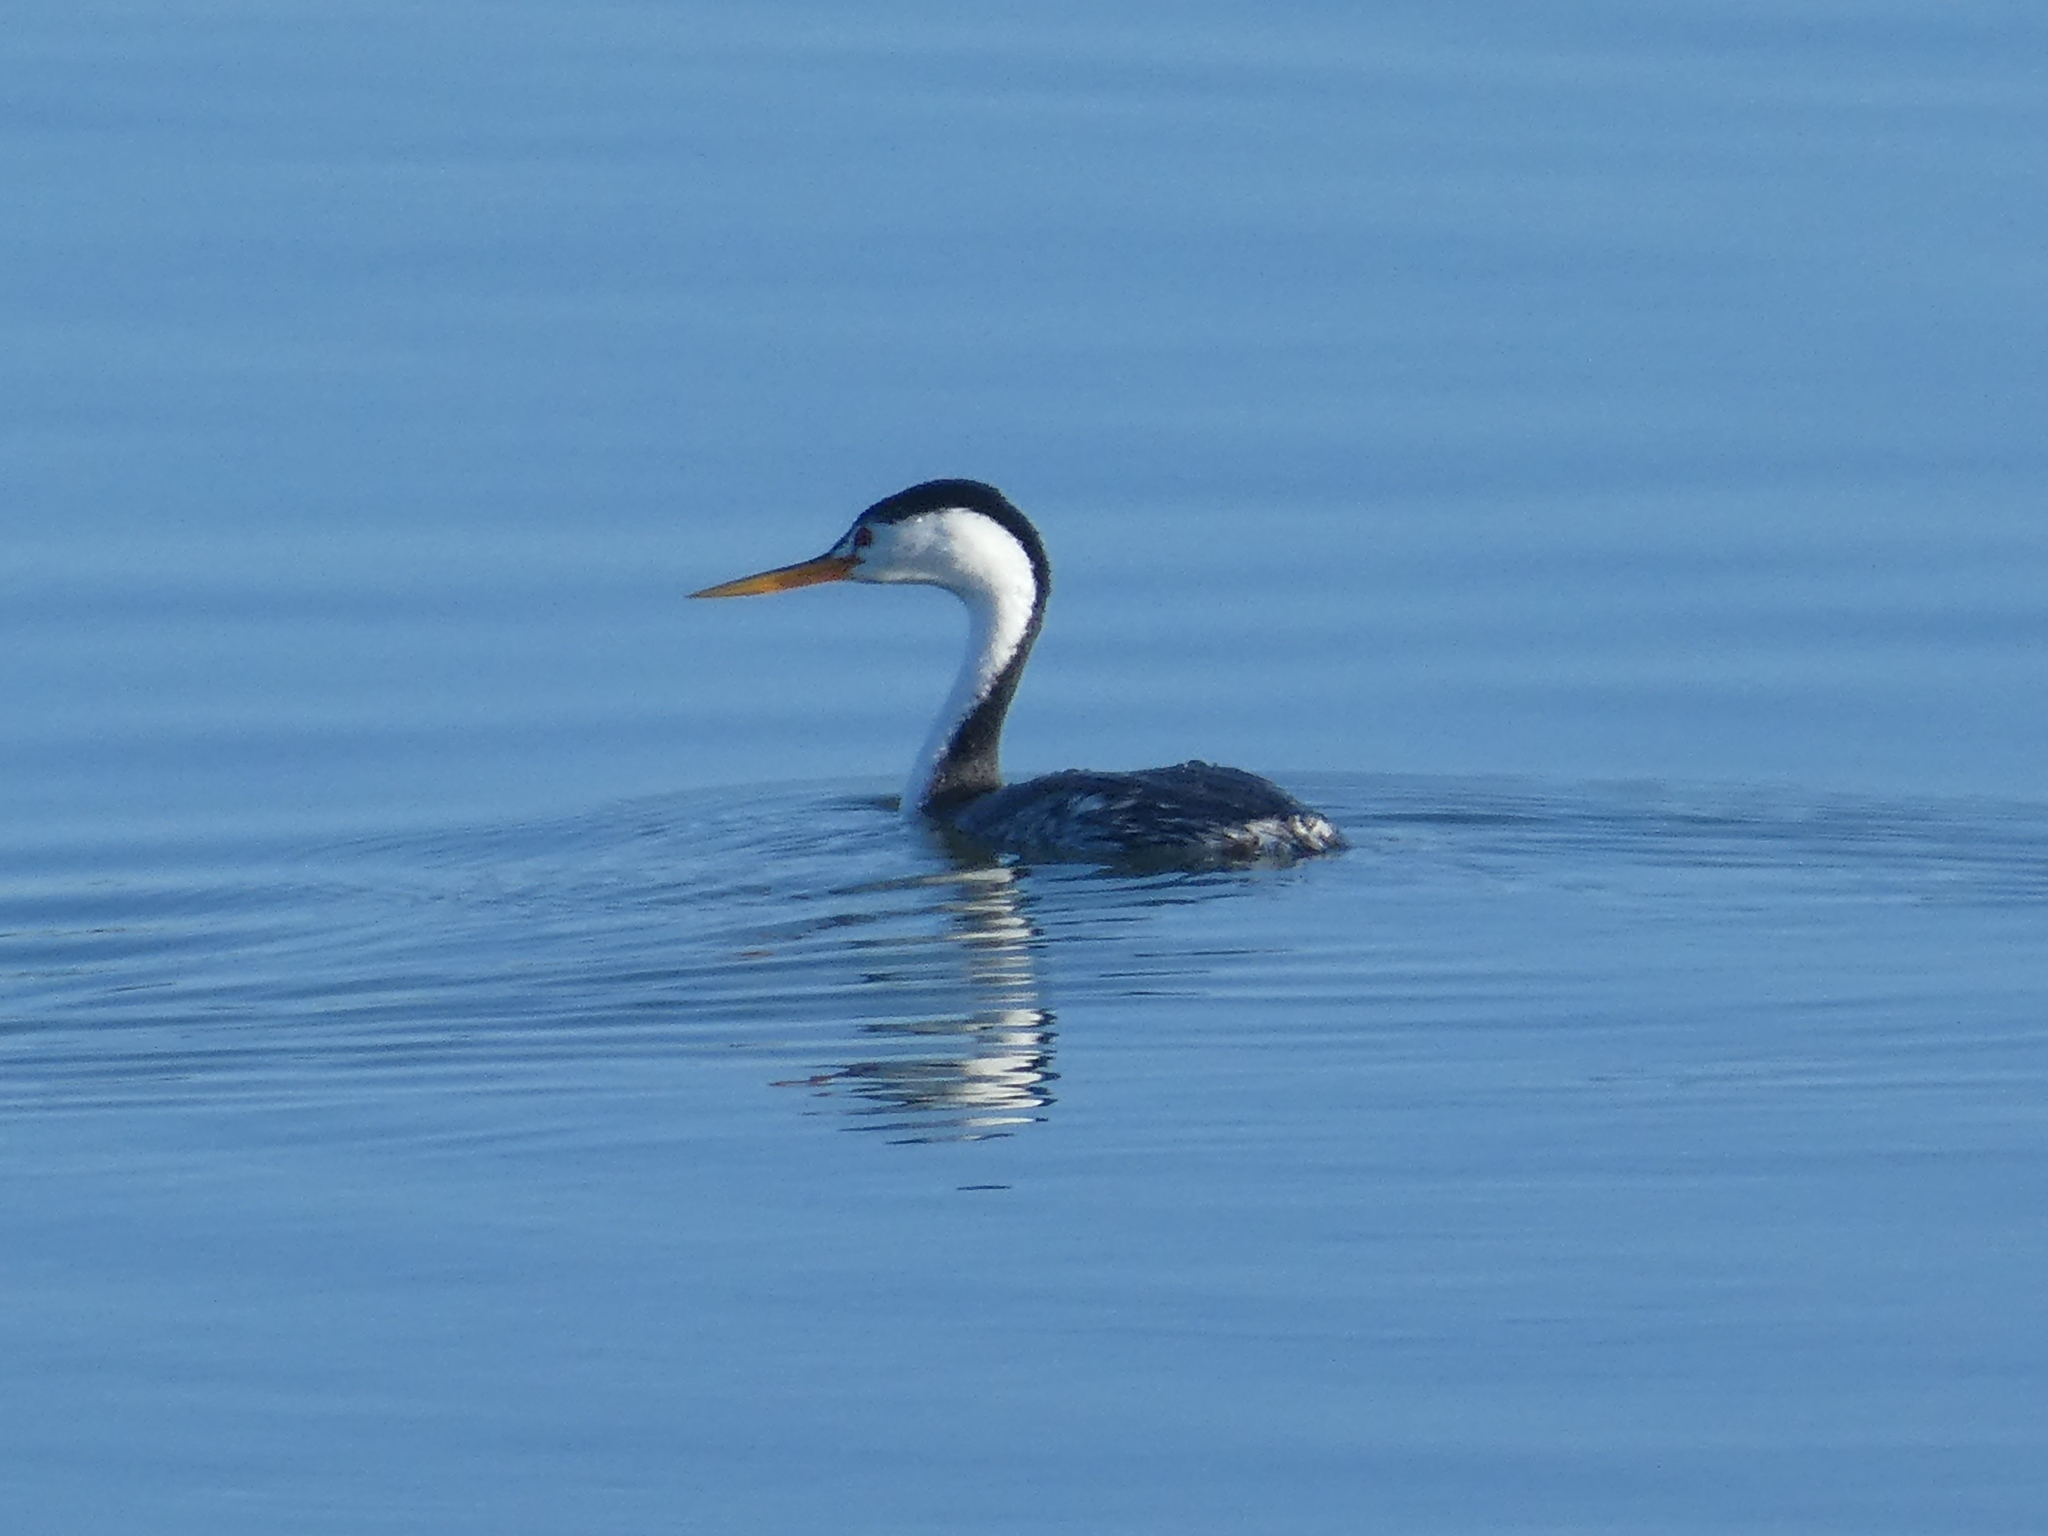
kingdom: Animalia
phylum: Chordata
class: Aves
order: Podicipediformes
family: Podicipedidae
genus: Aechmophorus
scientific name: Aechmophorus clarkii
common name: Clark's grebe
